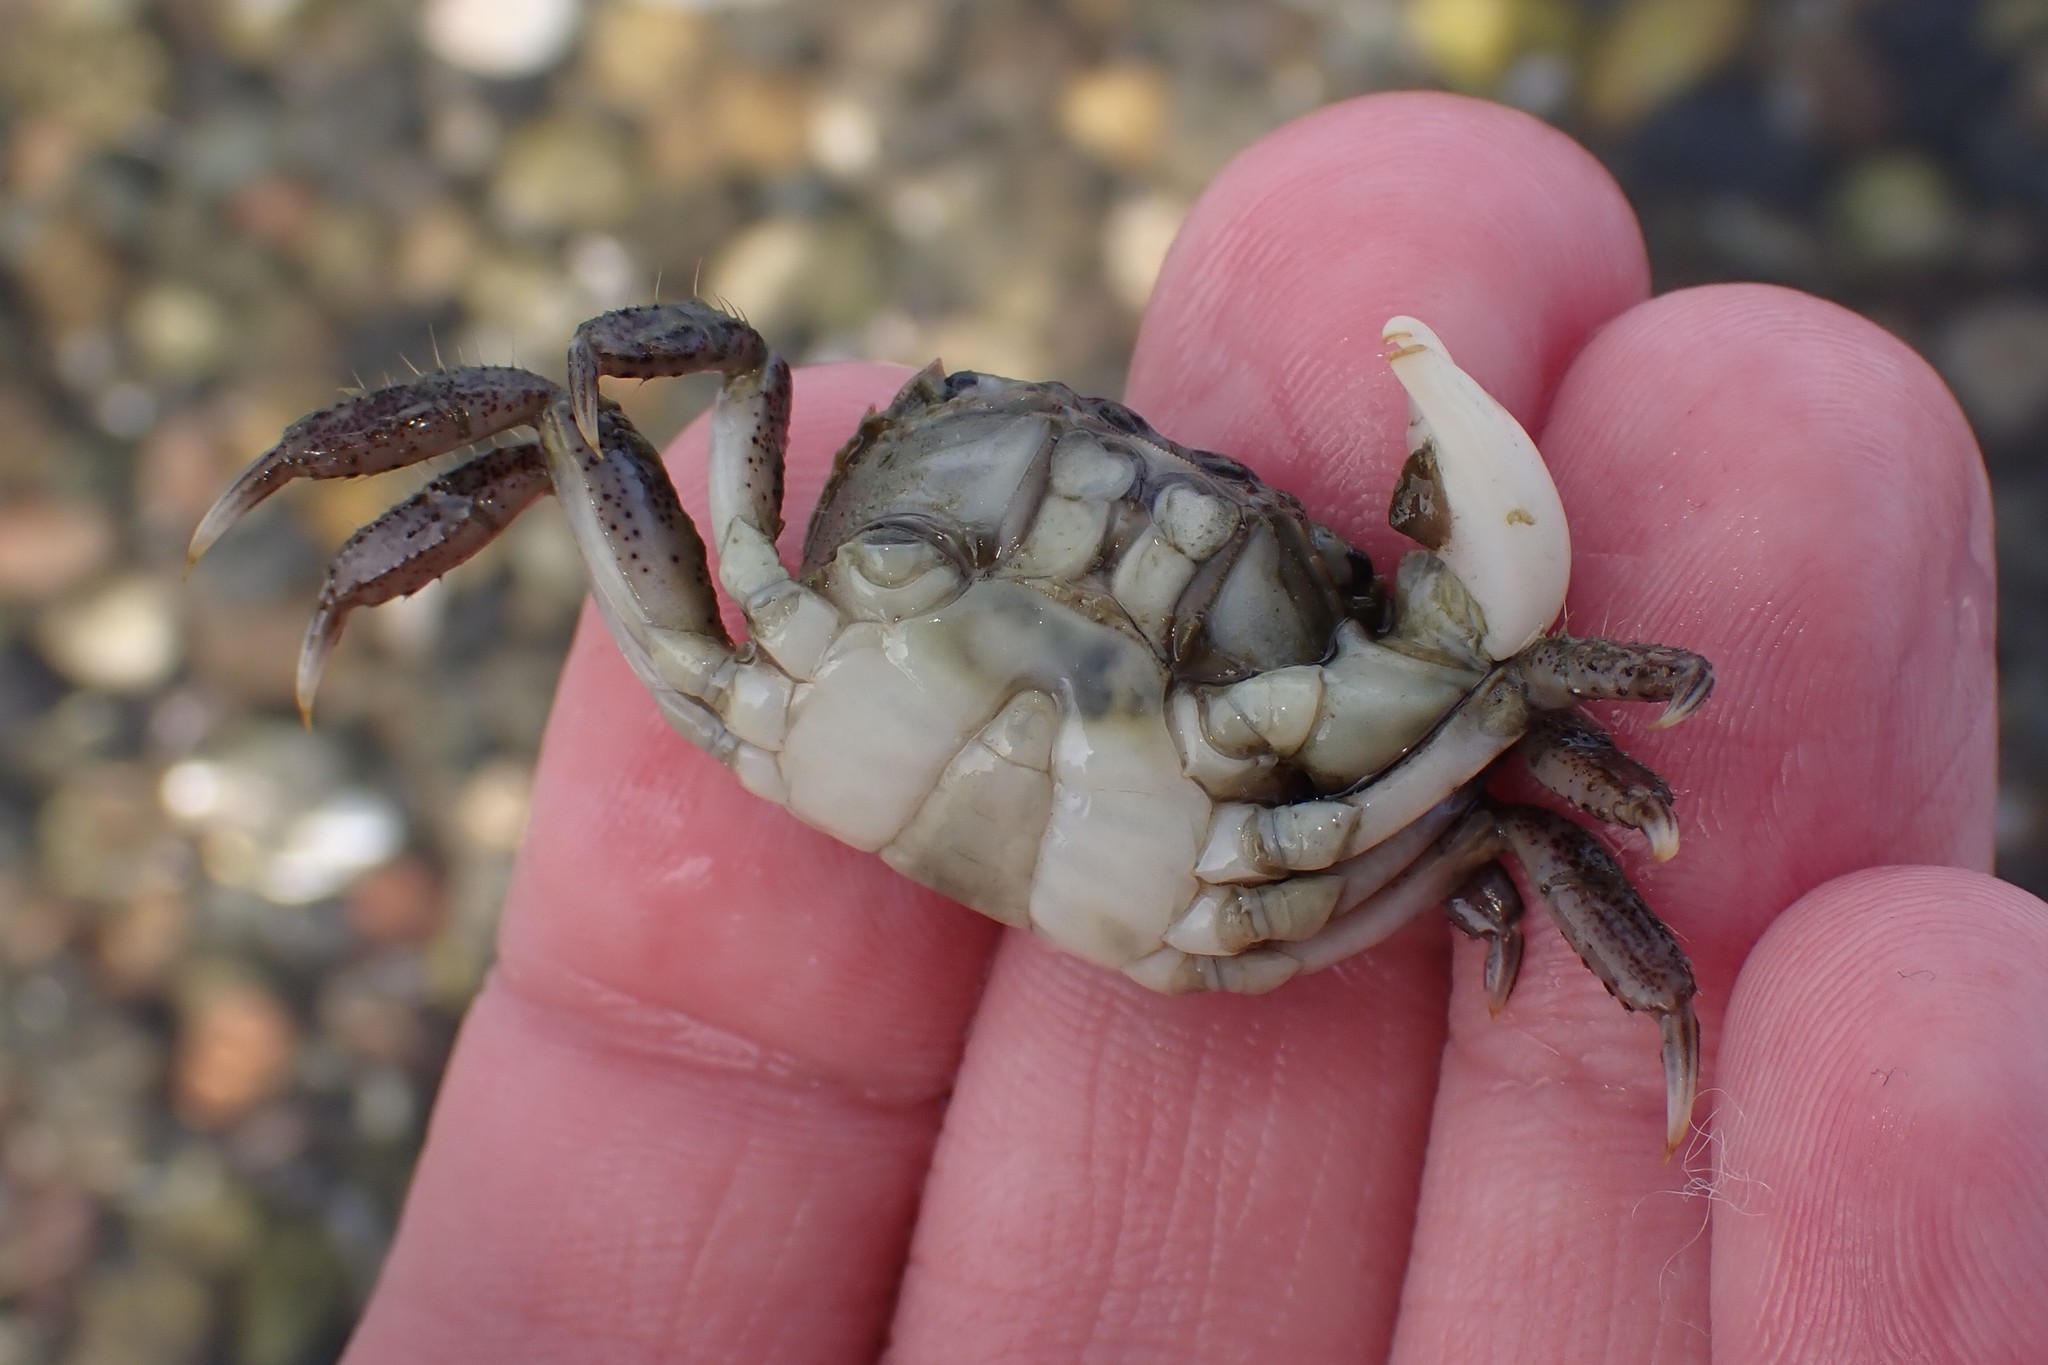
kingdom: Animalia
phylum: Arthropoda
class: Malacostraca
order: Decapoda
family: Varunidae
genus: Hemigrapsus
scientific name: Hemigrapsus oregonensis
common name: Yellow shore crab
